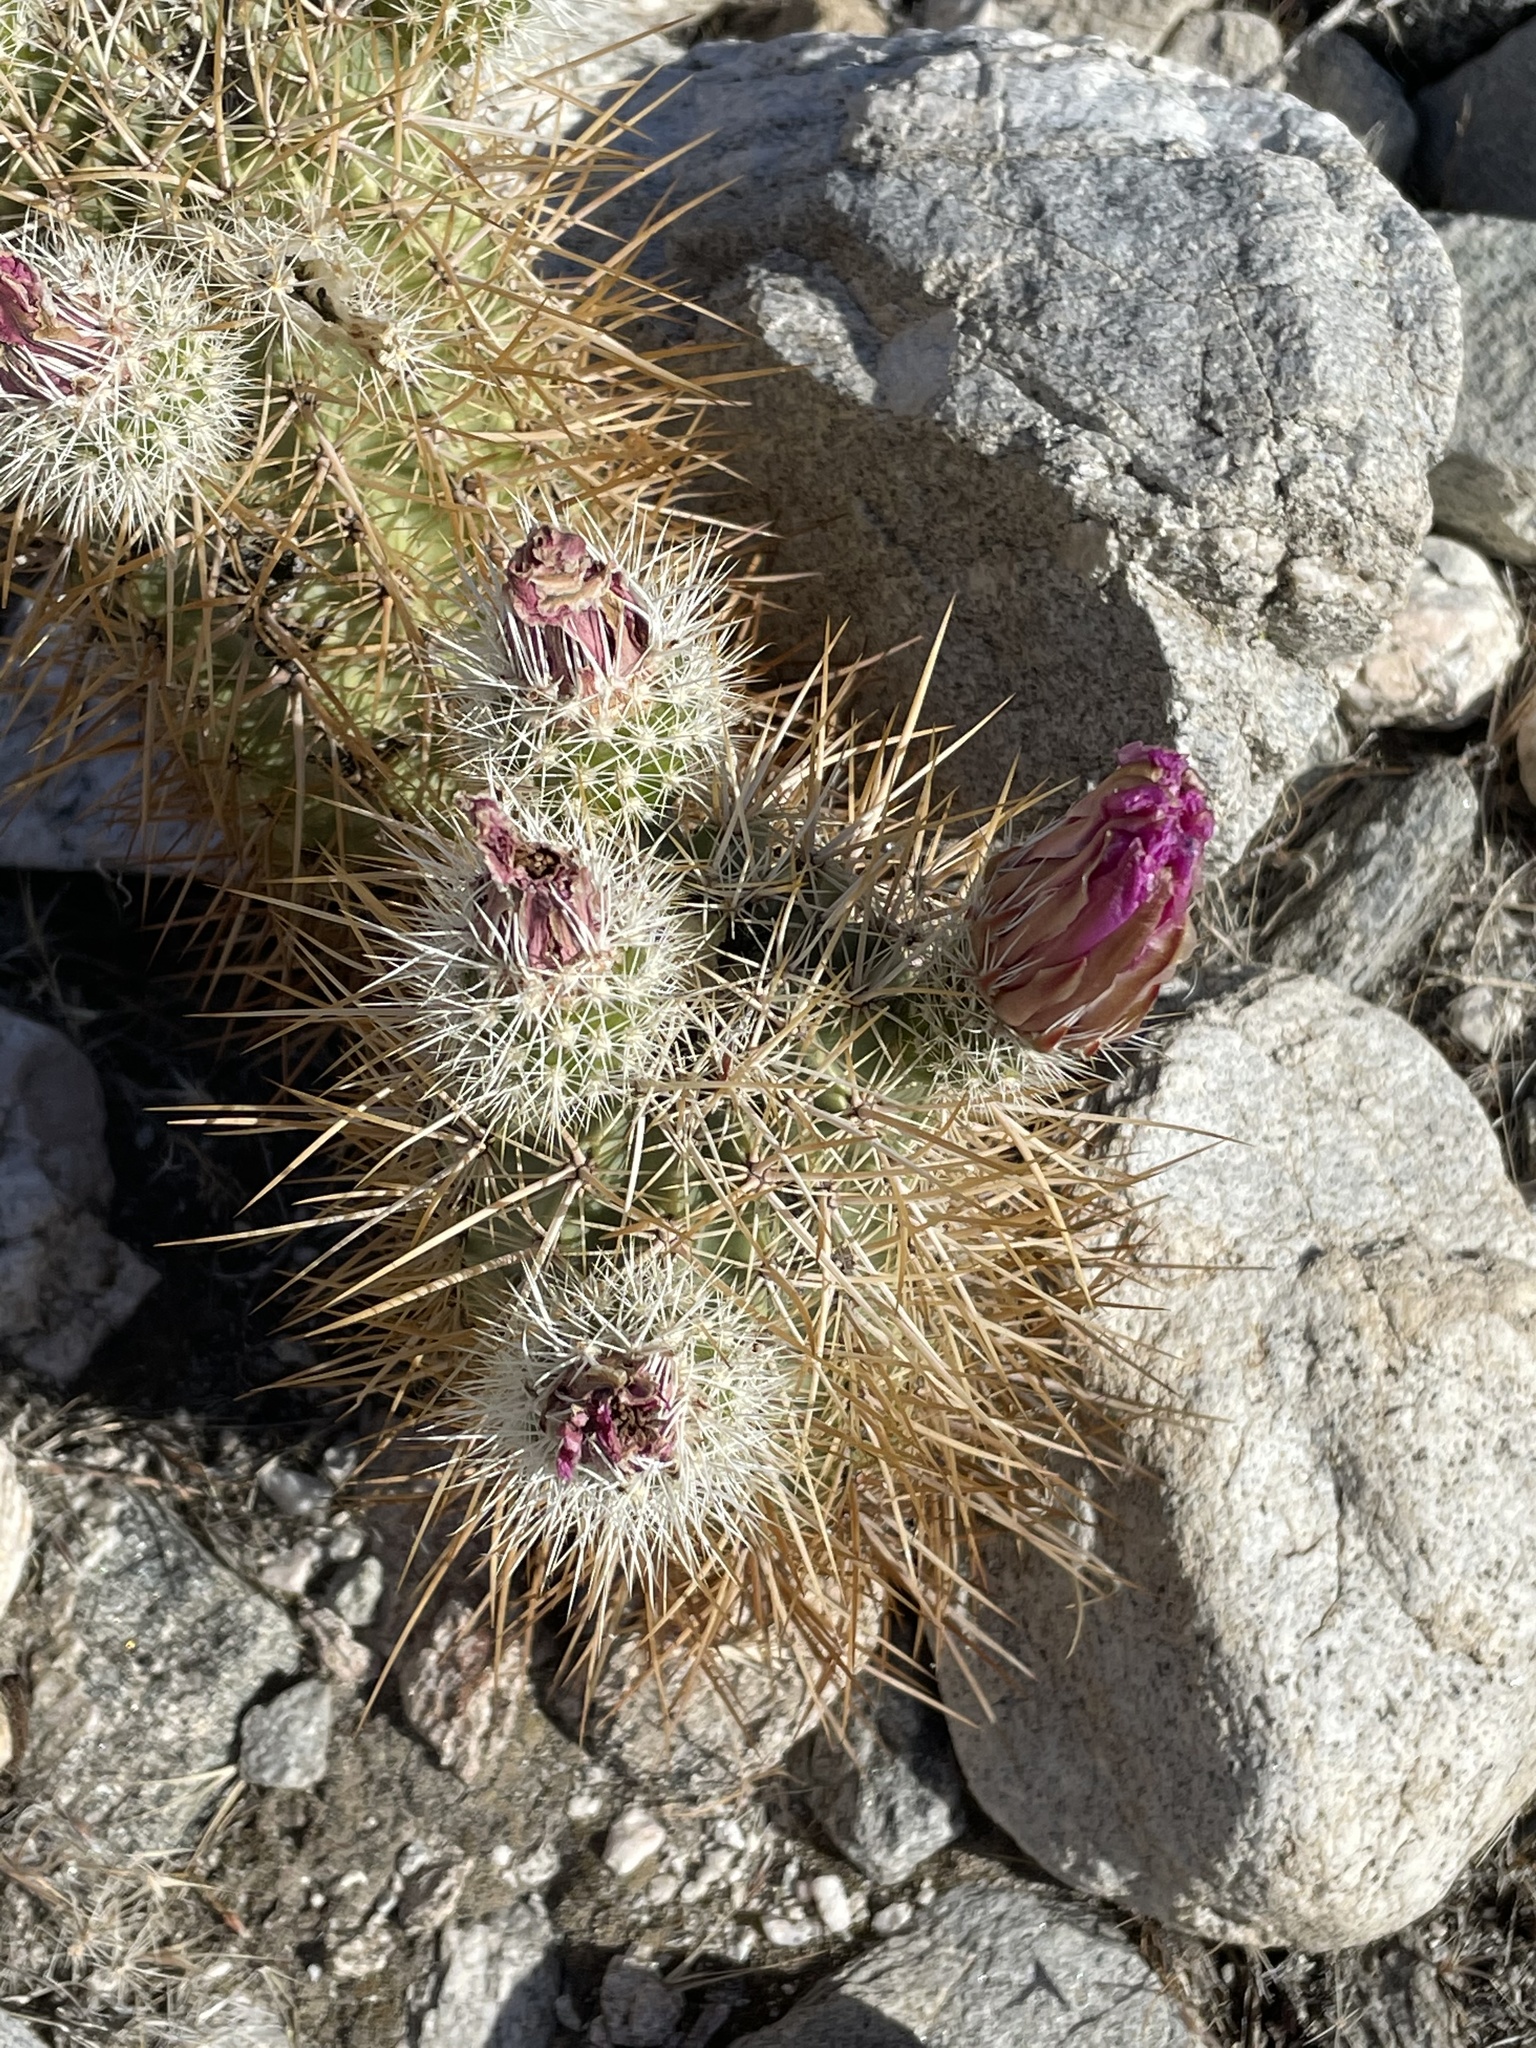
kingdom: Plantae
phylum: Tracheophyta
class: Magnoliopsida
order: Caryophyllales
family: Cactaceae
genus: Echinocereus
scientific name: Echinocereus engelmannii
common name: Engelmann's hedgehog cactus
